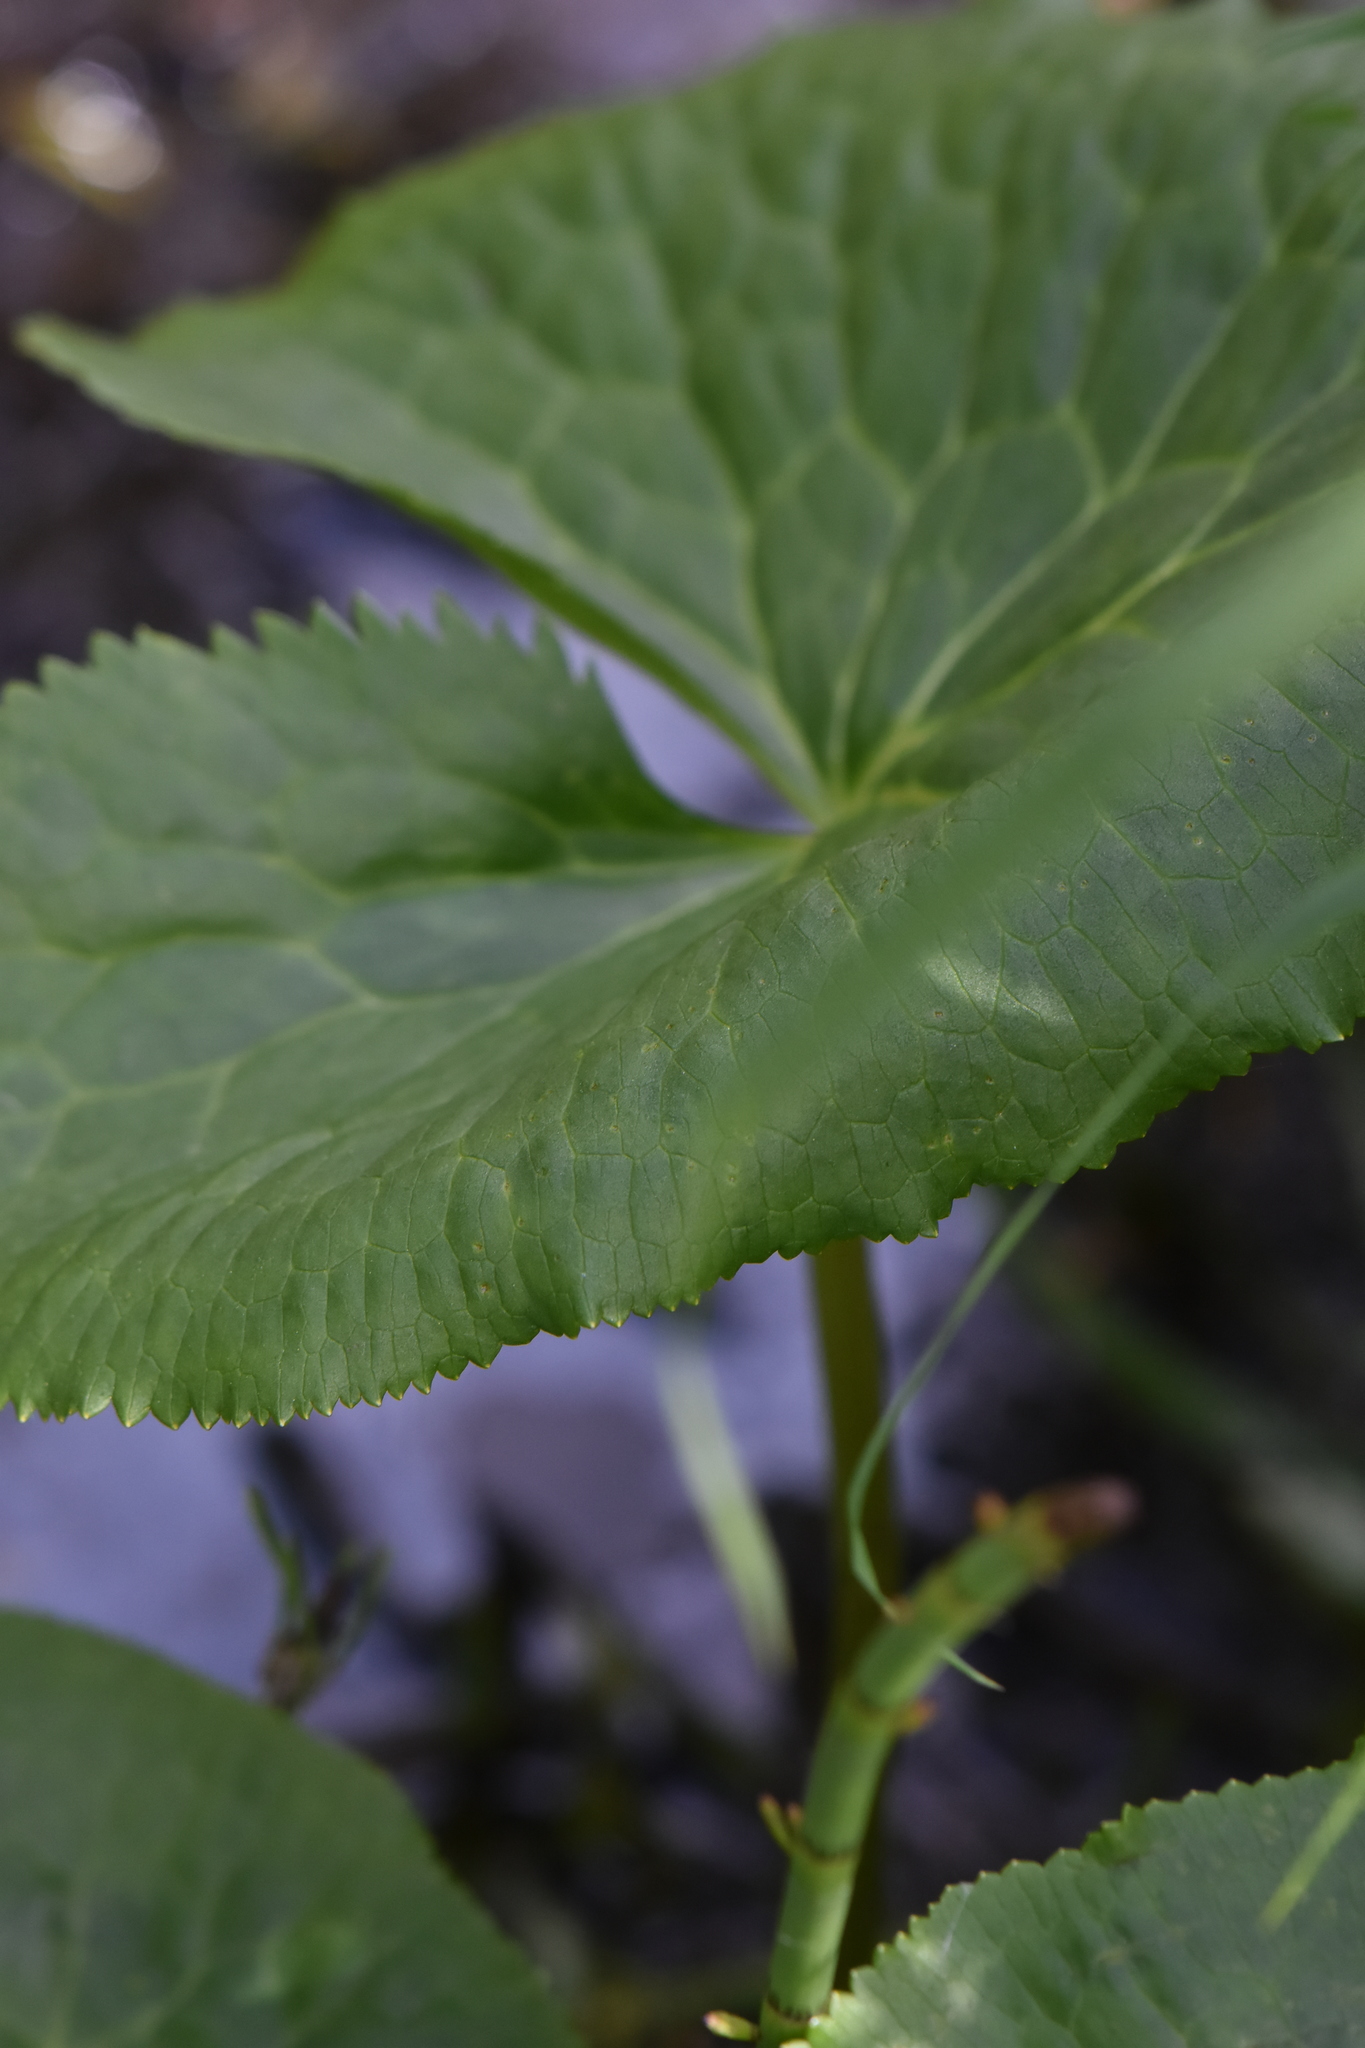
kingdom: Plantae
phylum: Tracheophyta
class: Magnoliopsida
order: Ranunculales
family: Ranunculaceae
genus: Caltha
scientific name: Caltha palustris
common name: Marsh marigold
